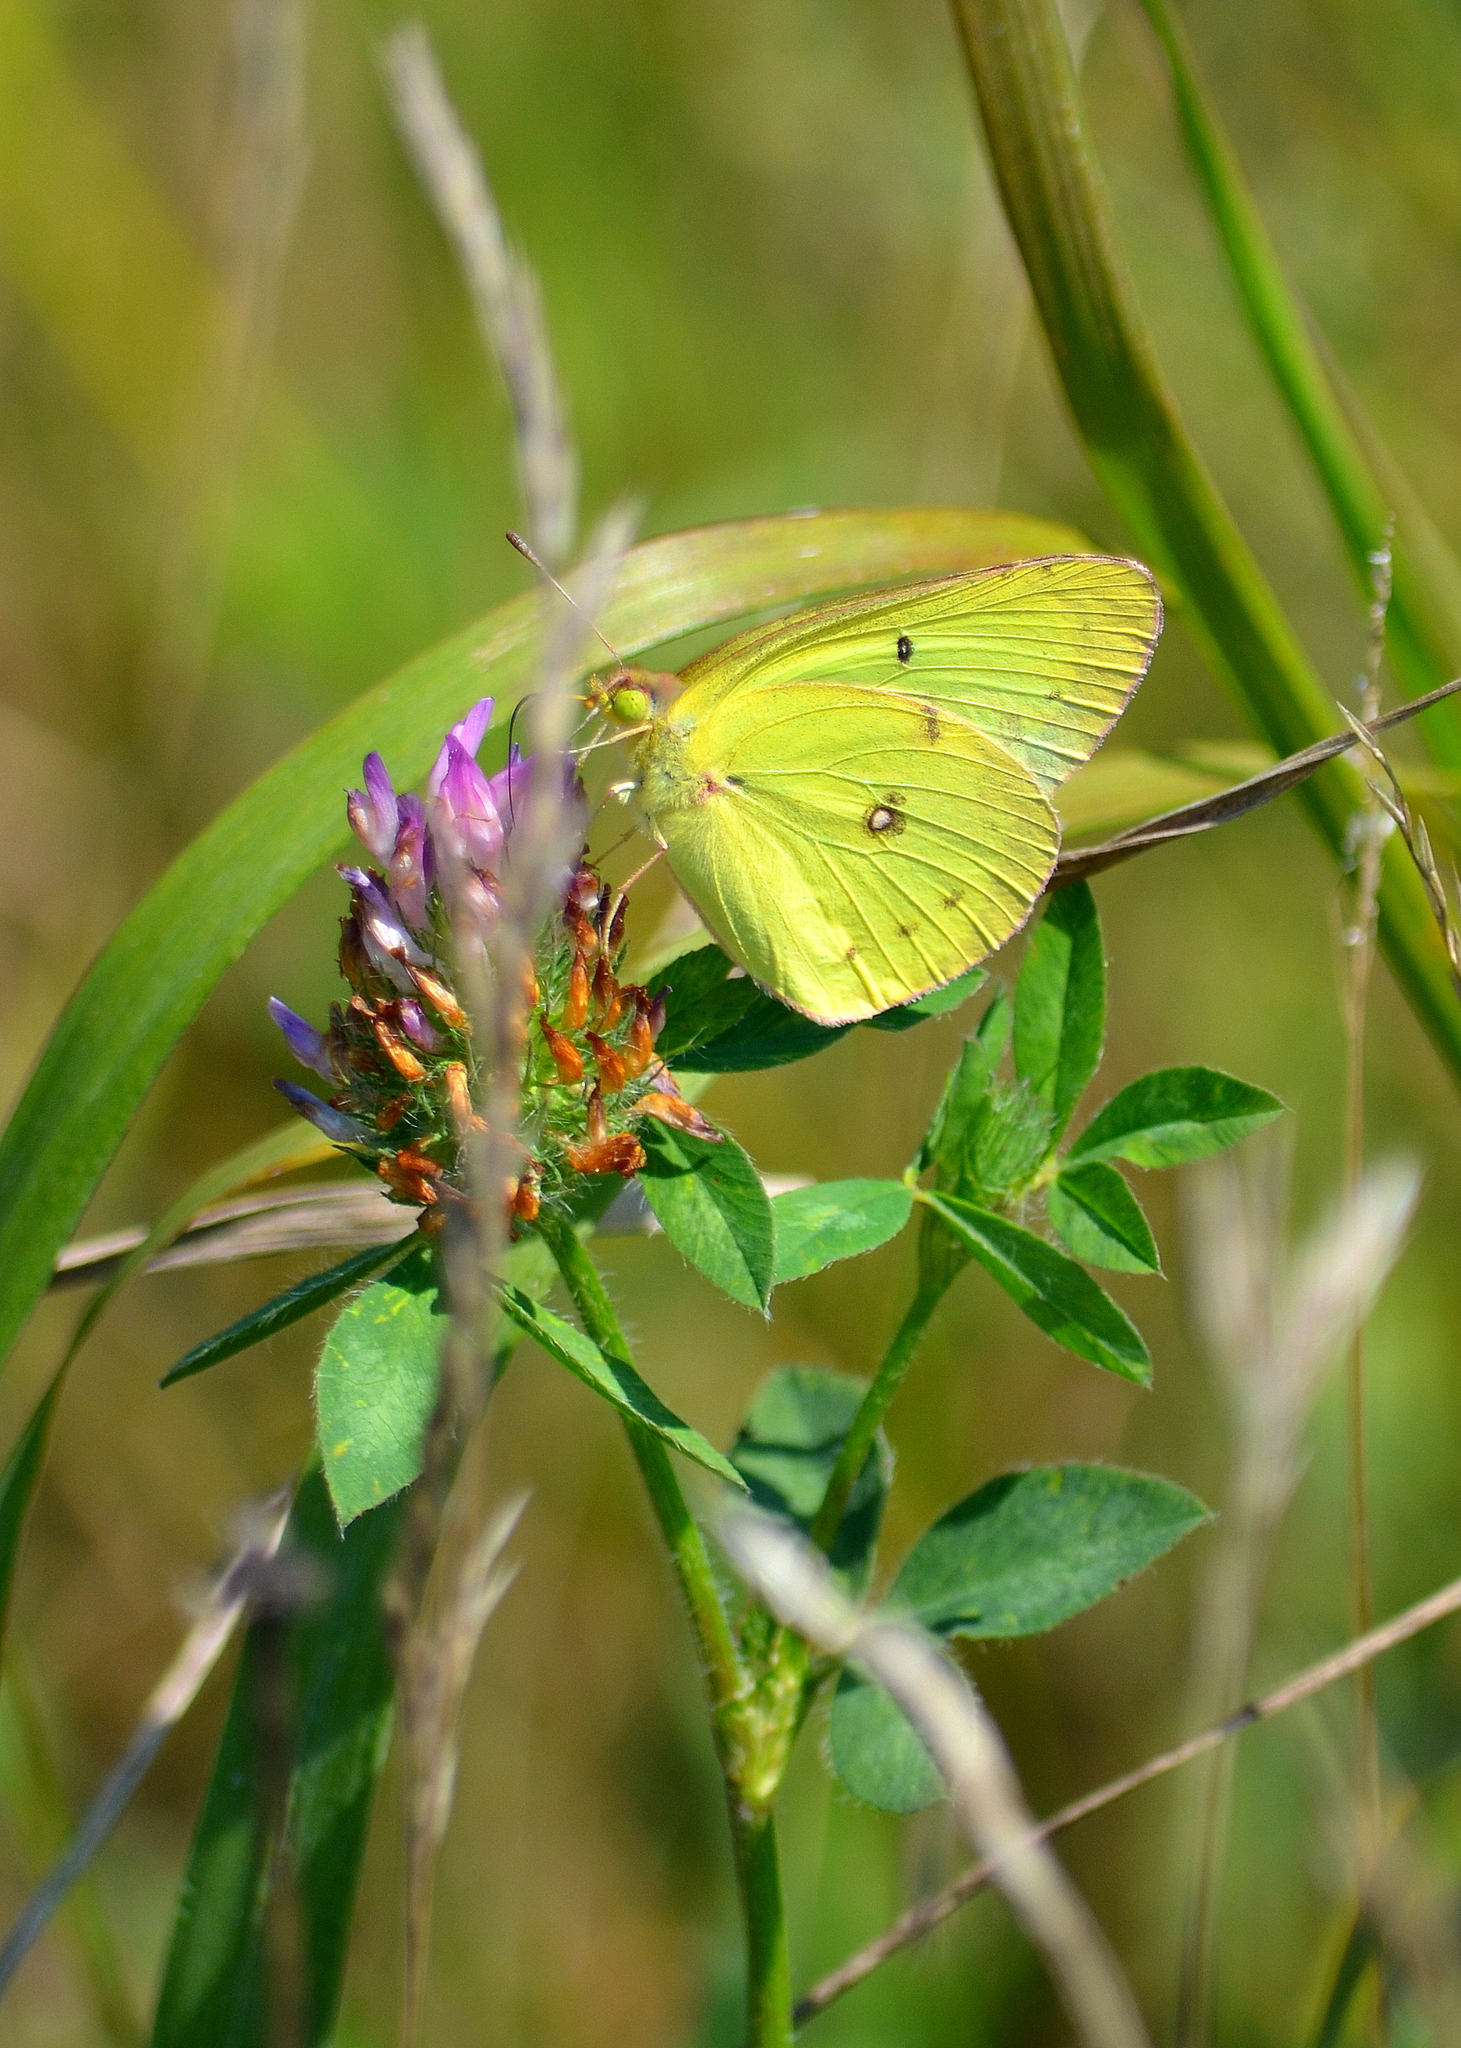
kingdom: Animalia
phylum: Arthropoda
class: Insecta
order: Lepidoptera
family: Pieridae
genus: Colias
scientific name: Colias philodice
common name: Clouded sulphur
